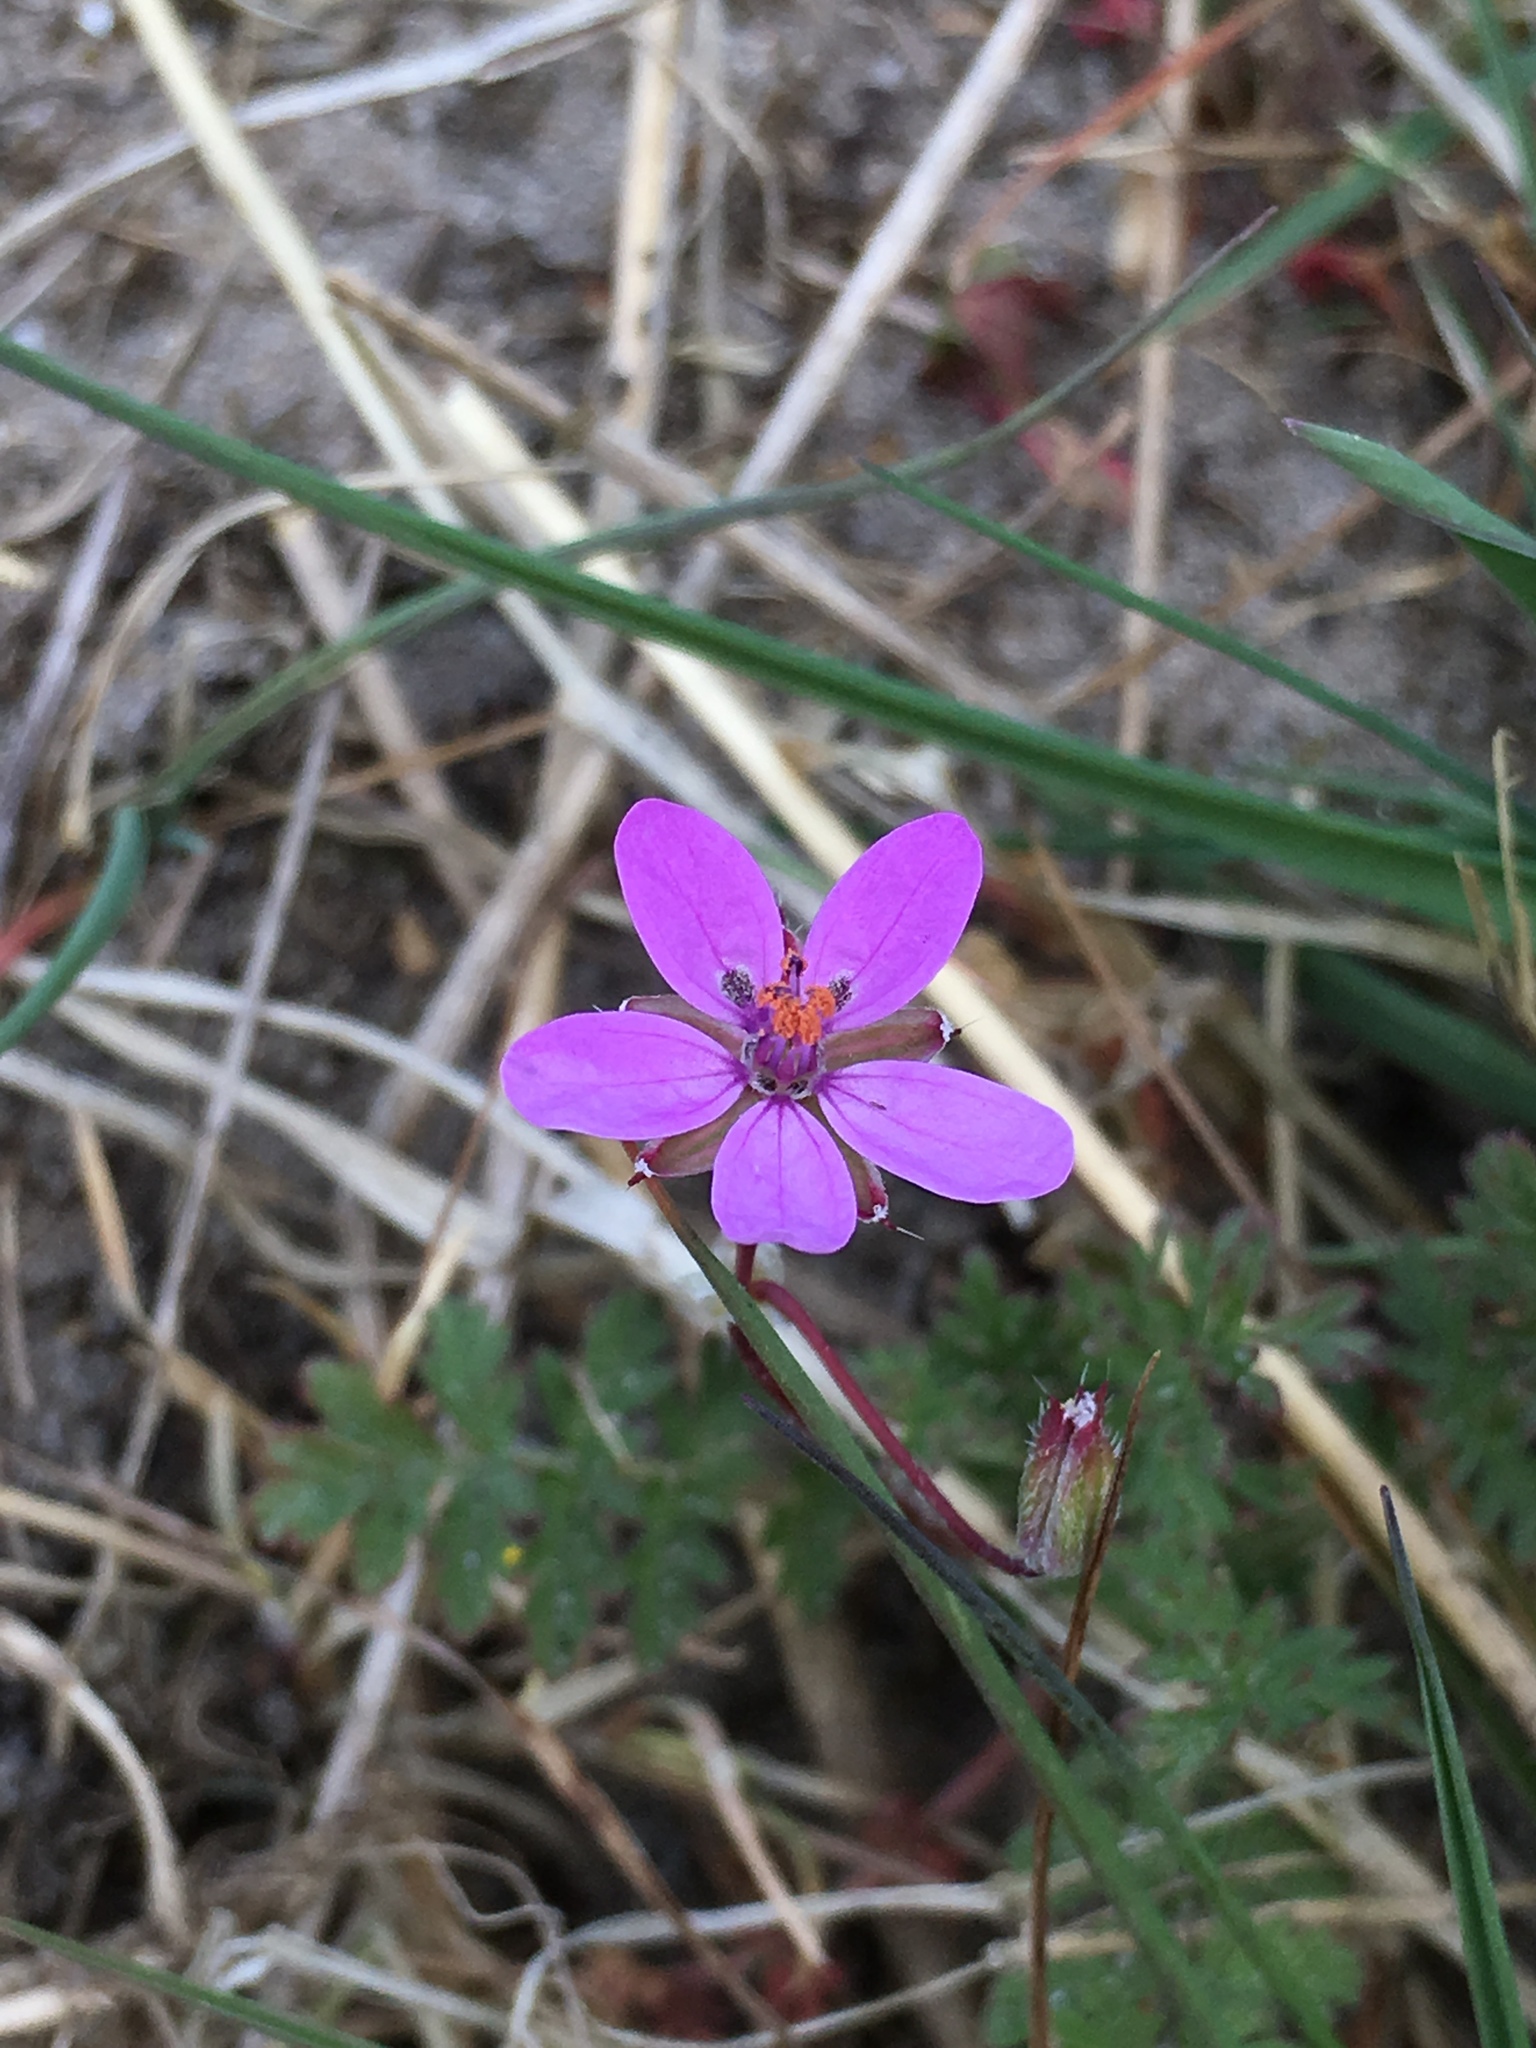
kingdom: Plantae
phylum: Tracheophyta
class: Magnoliopsida
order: Geraniales
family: Geraniaceae
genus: Erodium
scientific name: Erodium cicutarium
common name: Common stork's-bill
